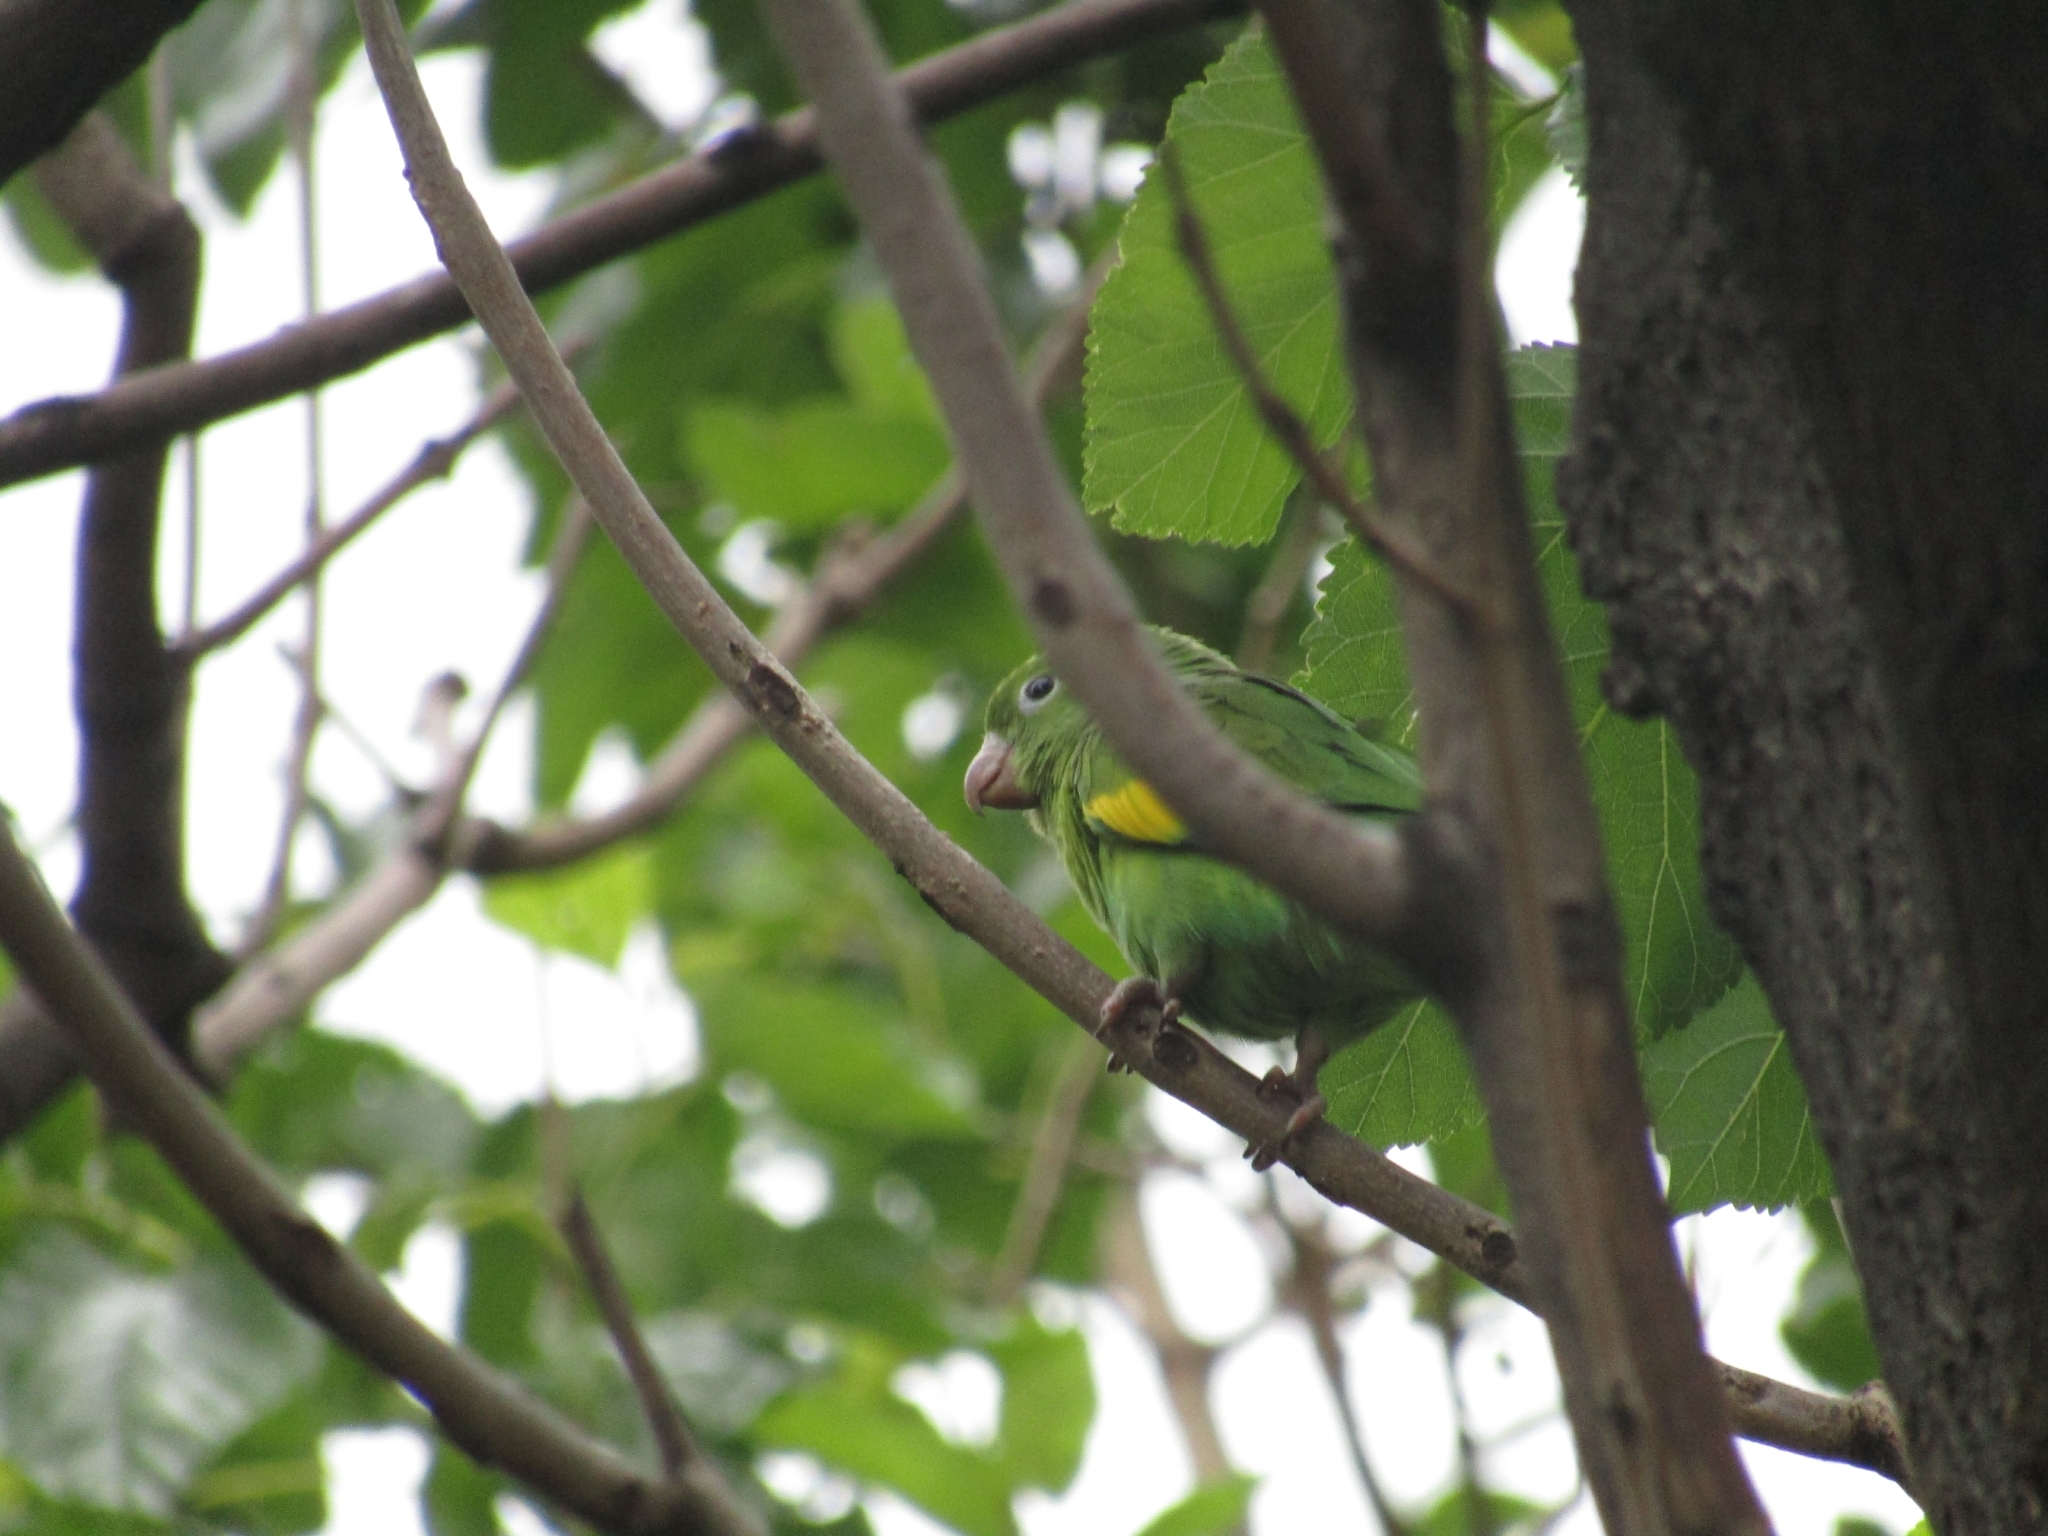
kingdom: Animalia
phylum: Chordata
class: Aves
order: Psittaciformes
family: Psittacidae
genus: Brotogeris
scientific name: Brotogeris chiriri
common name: Yellow-chevroned parakeet
